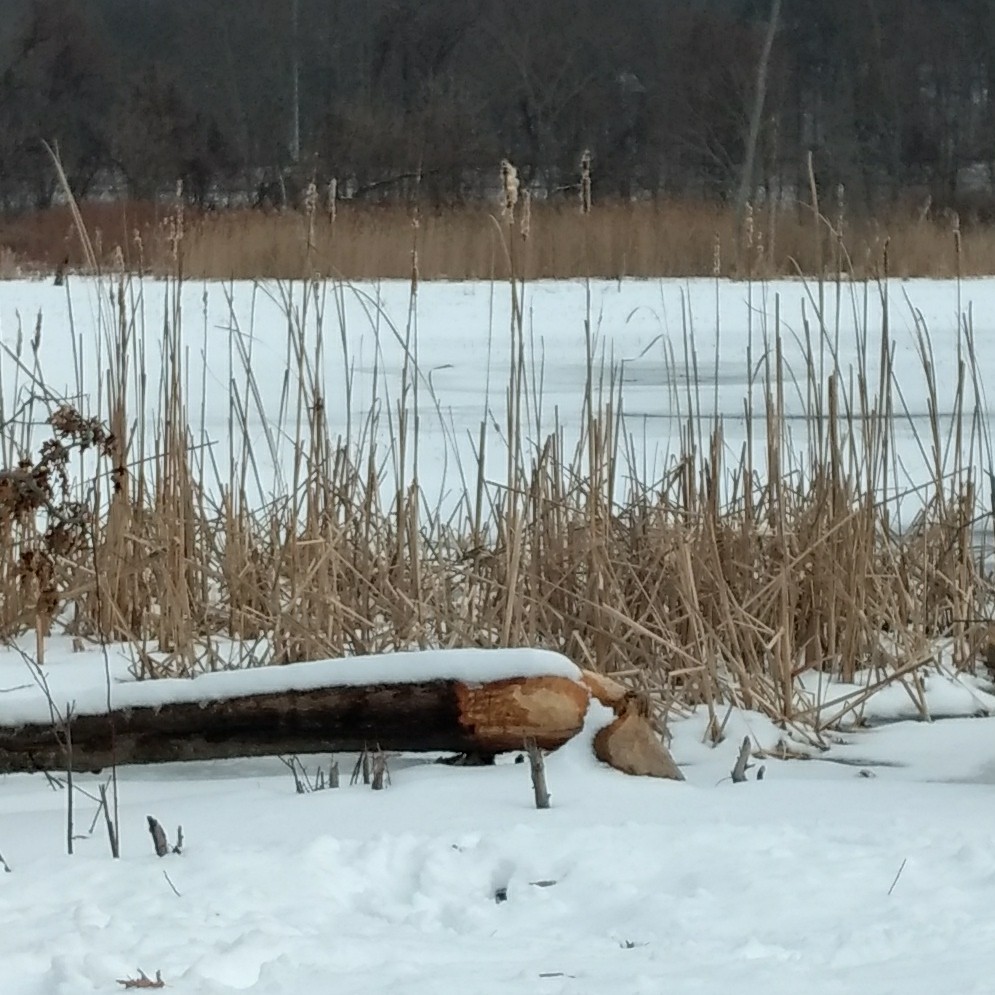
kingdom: Animalia
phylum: Chordata
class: Mammalia
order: Rodentia
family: Castoridae
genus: Castor
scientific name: Castor canadensis
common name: American beaver
